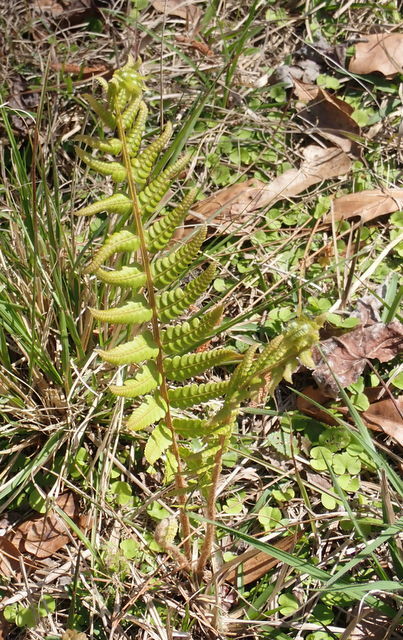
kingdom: Plantae
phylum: Tracheophyta
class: Polypodiopsida
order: Osmundales
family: Osmundaceae
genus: Osmundastrum
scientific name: Osmundastrum cinnamomeum
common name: Cinnamon fern
